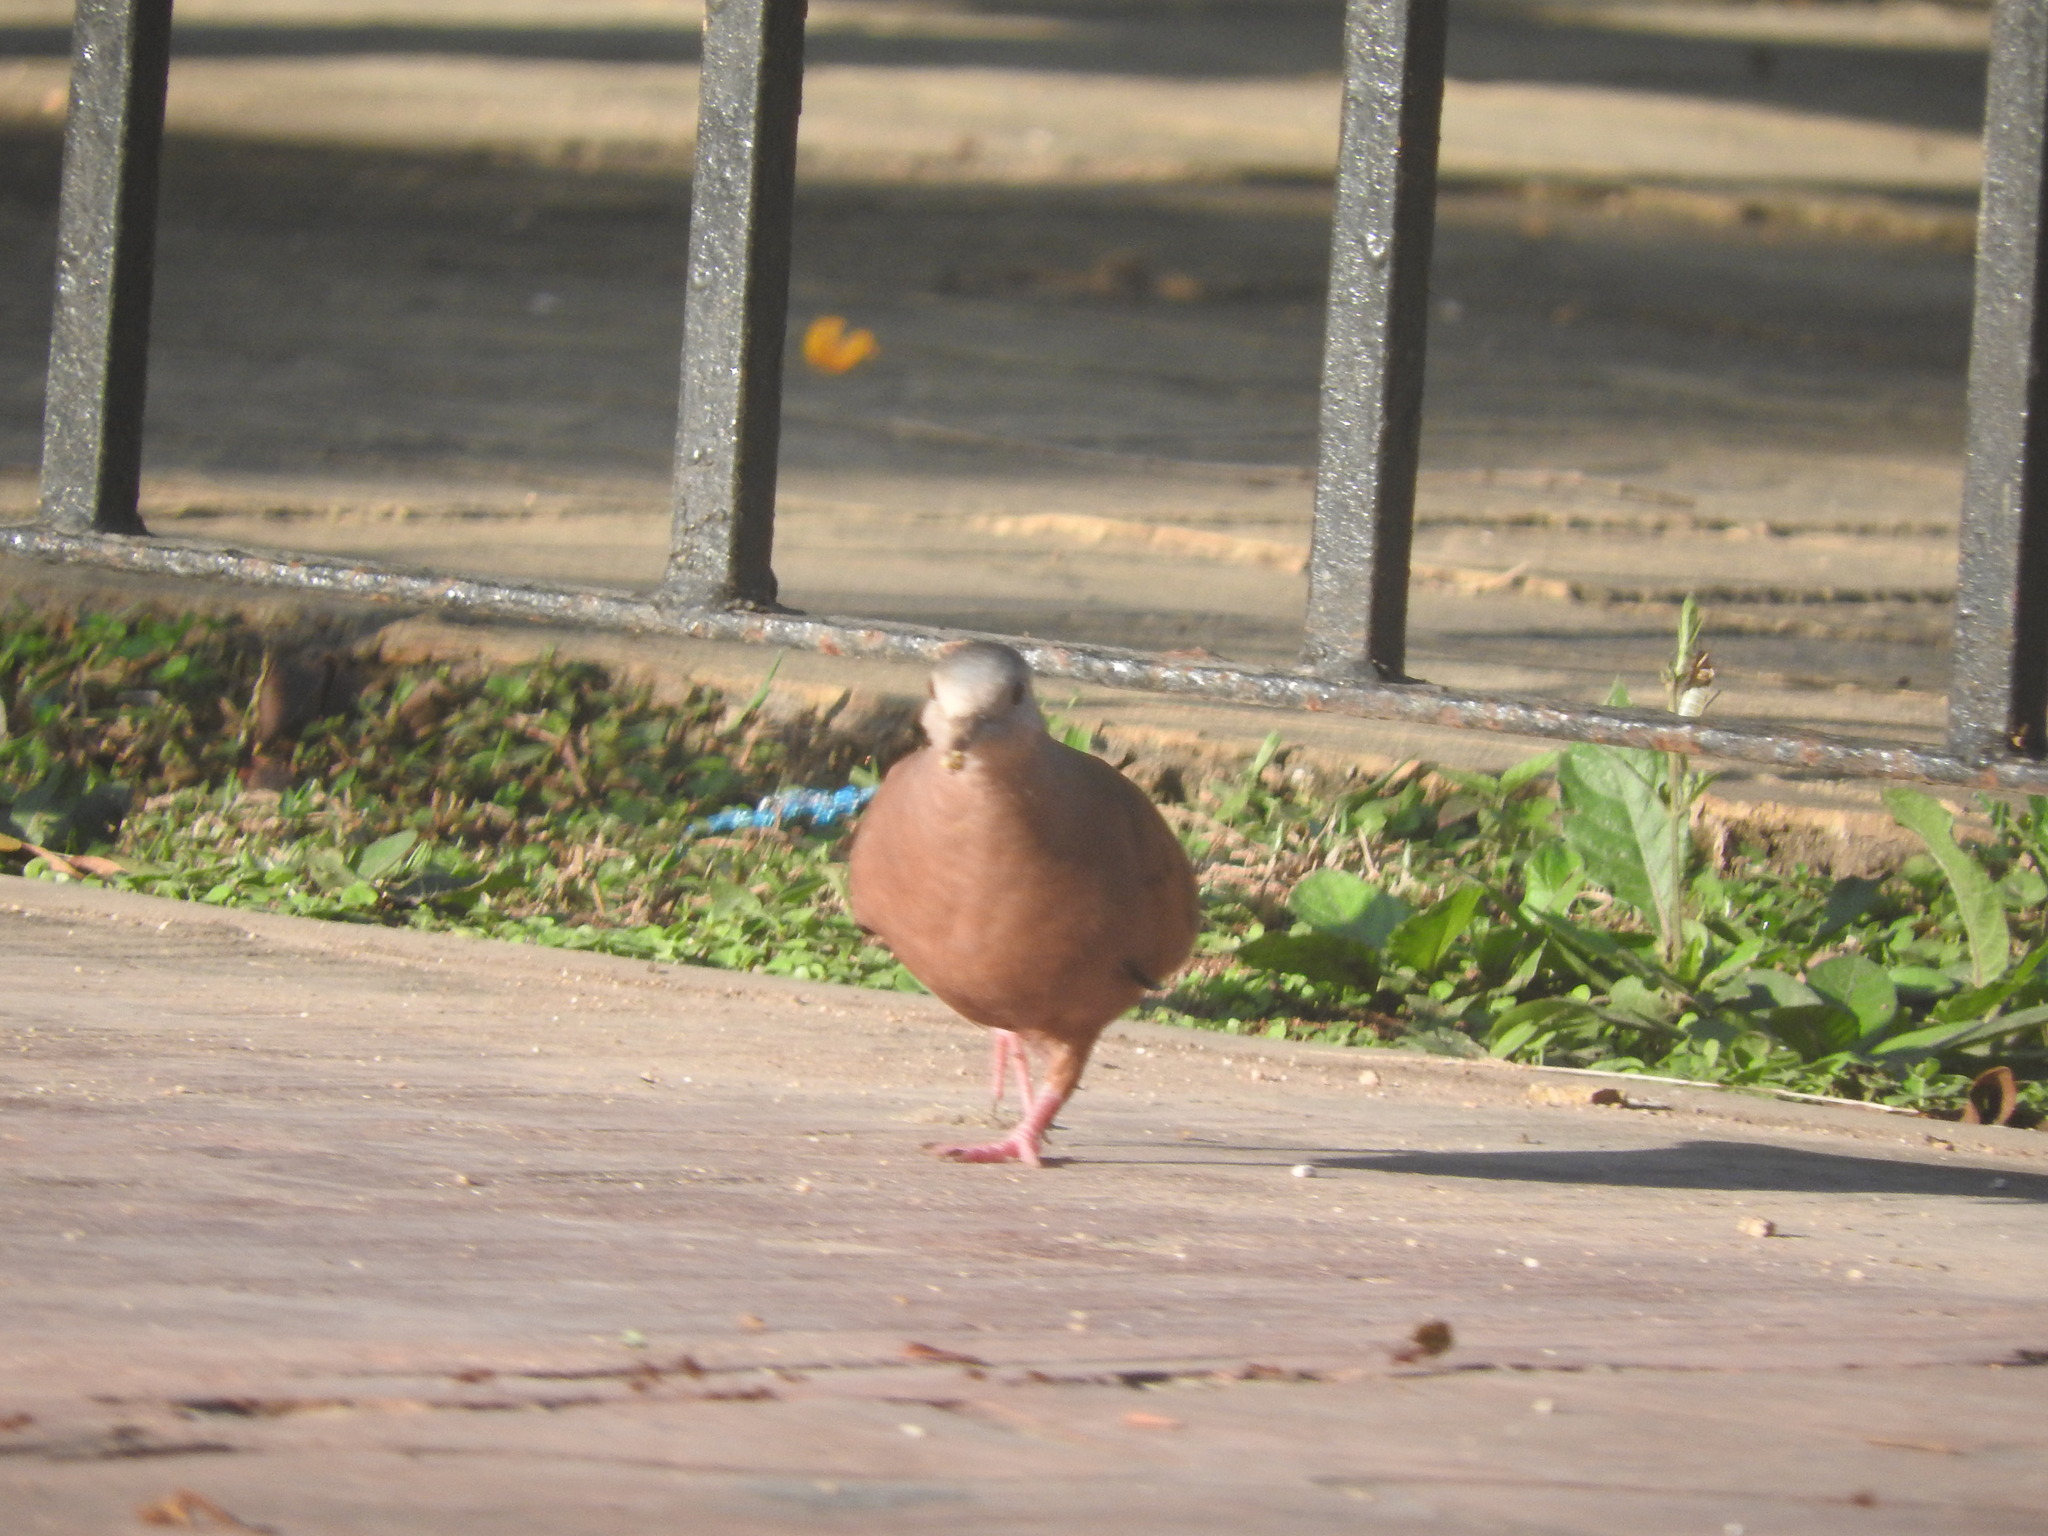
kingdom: Animalia
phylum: Chordata
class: Aves
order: Columbiformes
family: Columbidae
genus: Columbina
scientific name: Columbina talpacoti
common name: Ruddy ground dove
